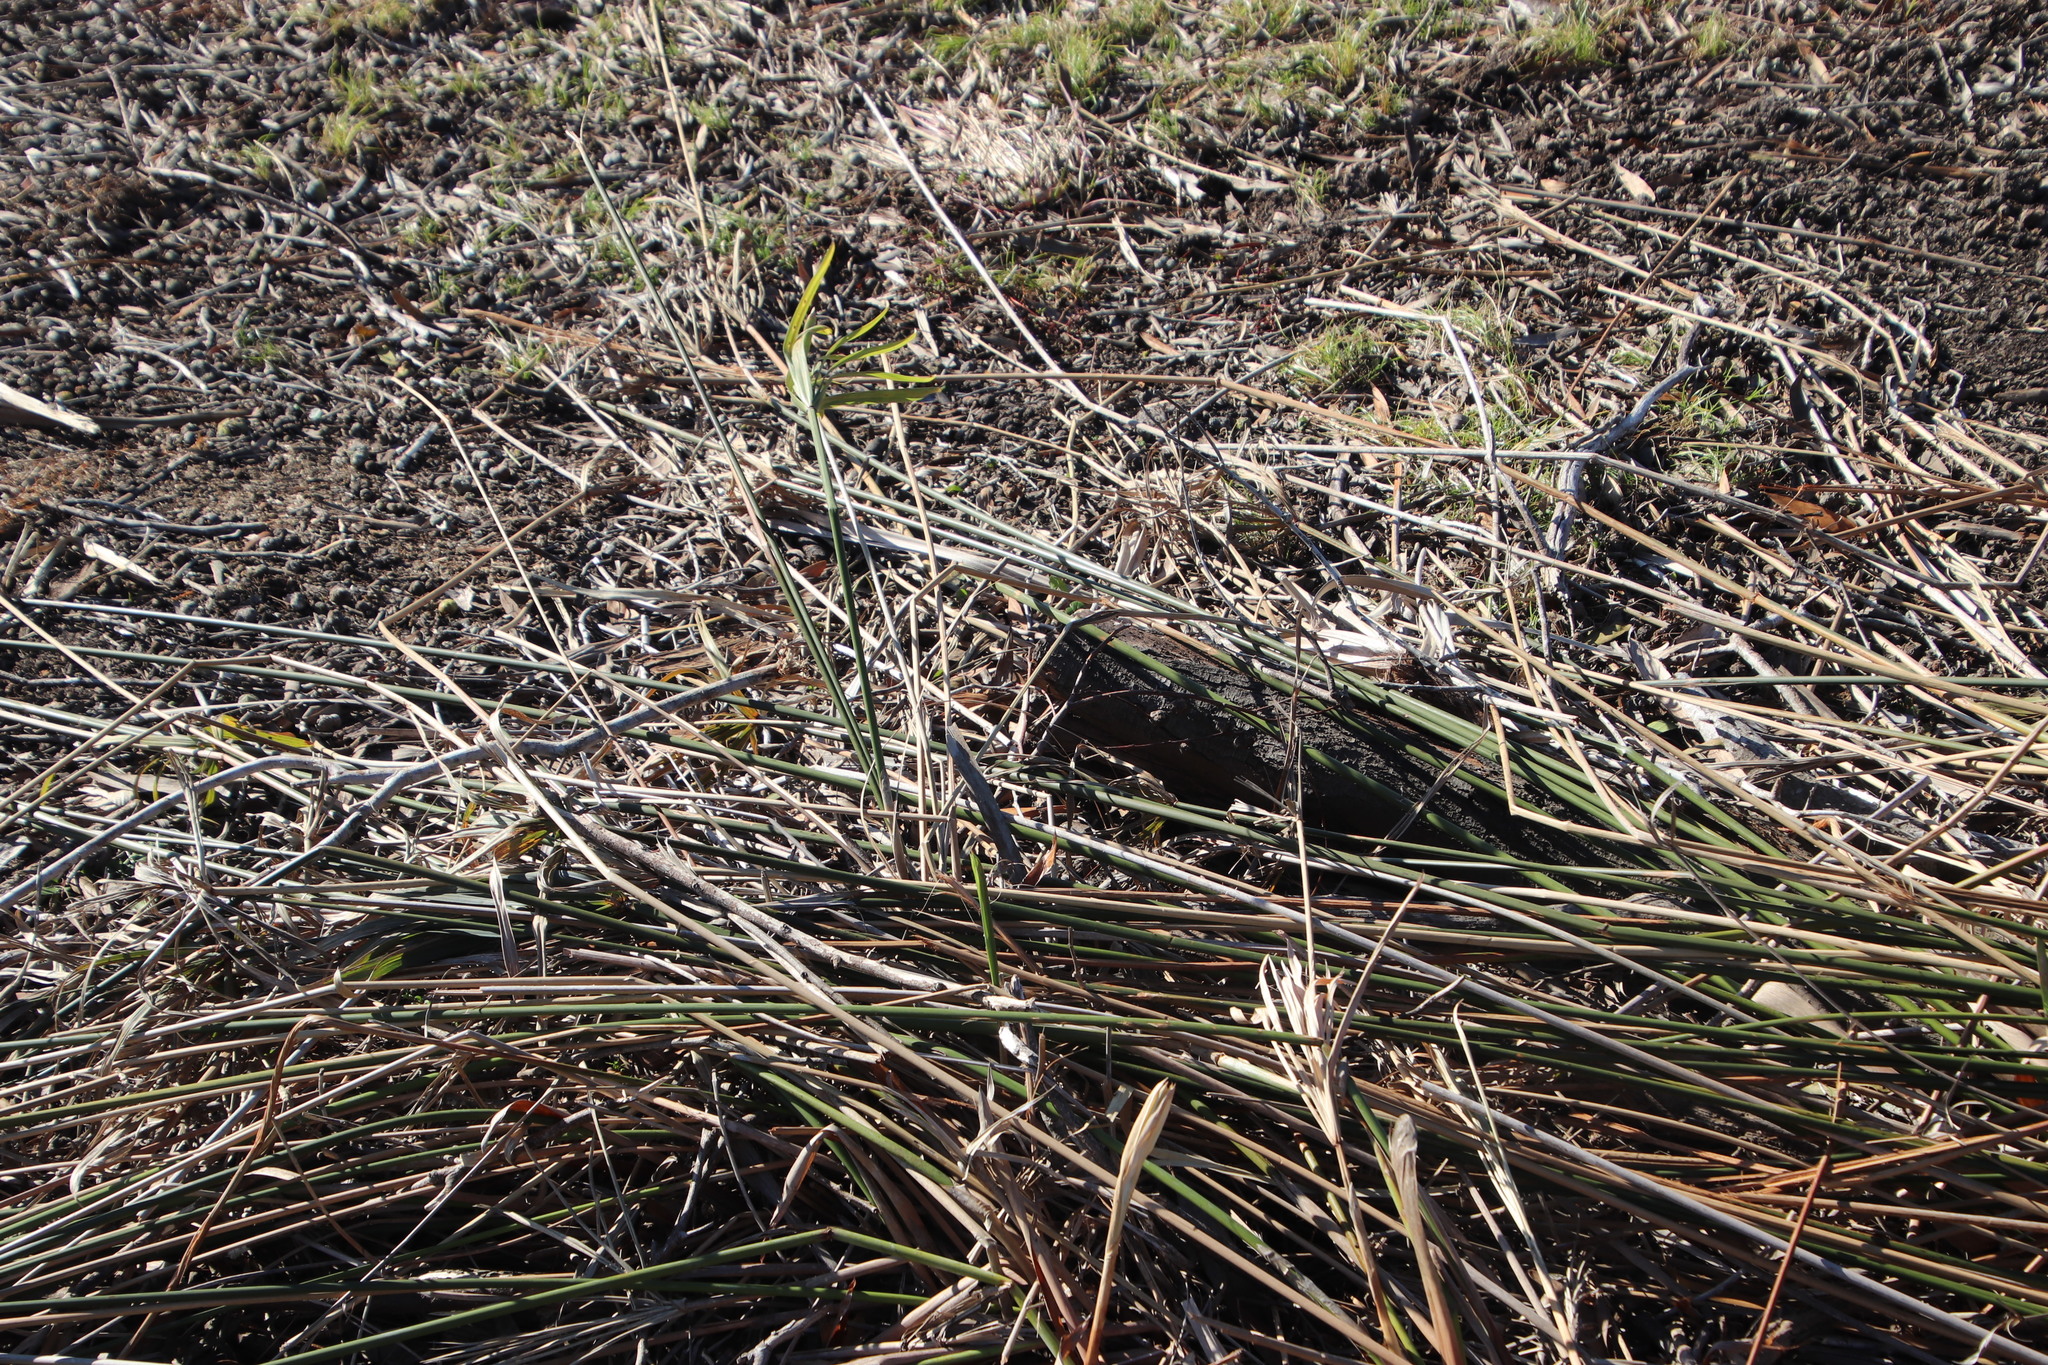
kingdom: Plantae
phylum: Tracheophyta
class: Liliopsida
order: Poales
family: Cyperaceae
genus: Cyperus
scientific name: Cyperus textilis
